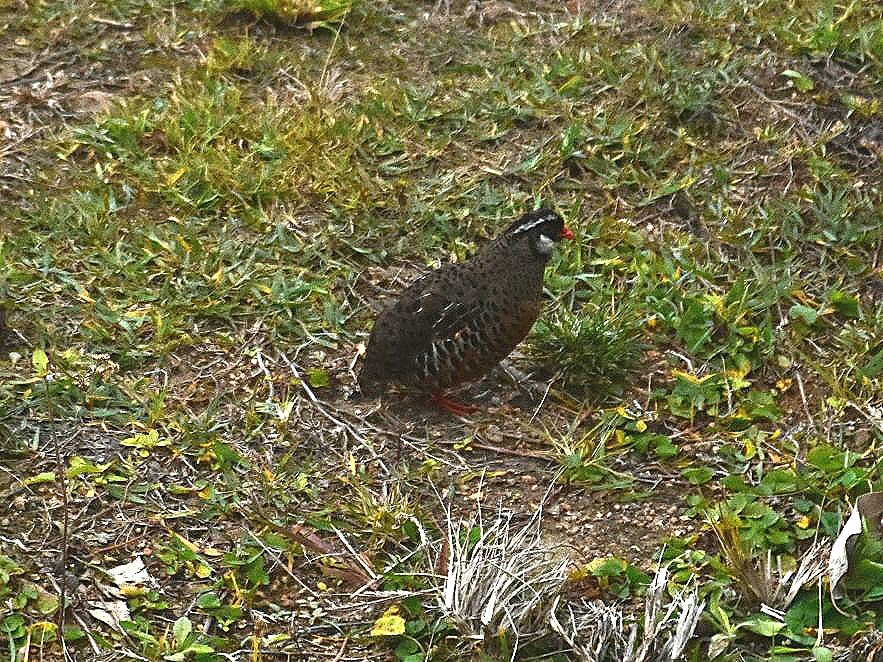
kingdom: Animalia
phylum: Chordata
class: Aves
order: Galliformes
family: Phasianidae
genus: Perdicula
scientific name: Perdicula erythrorhyncha
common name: Painted bush-quail
